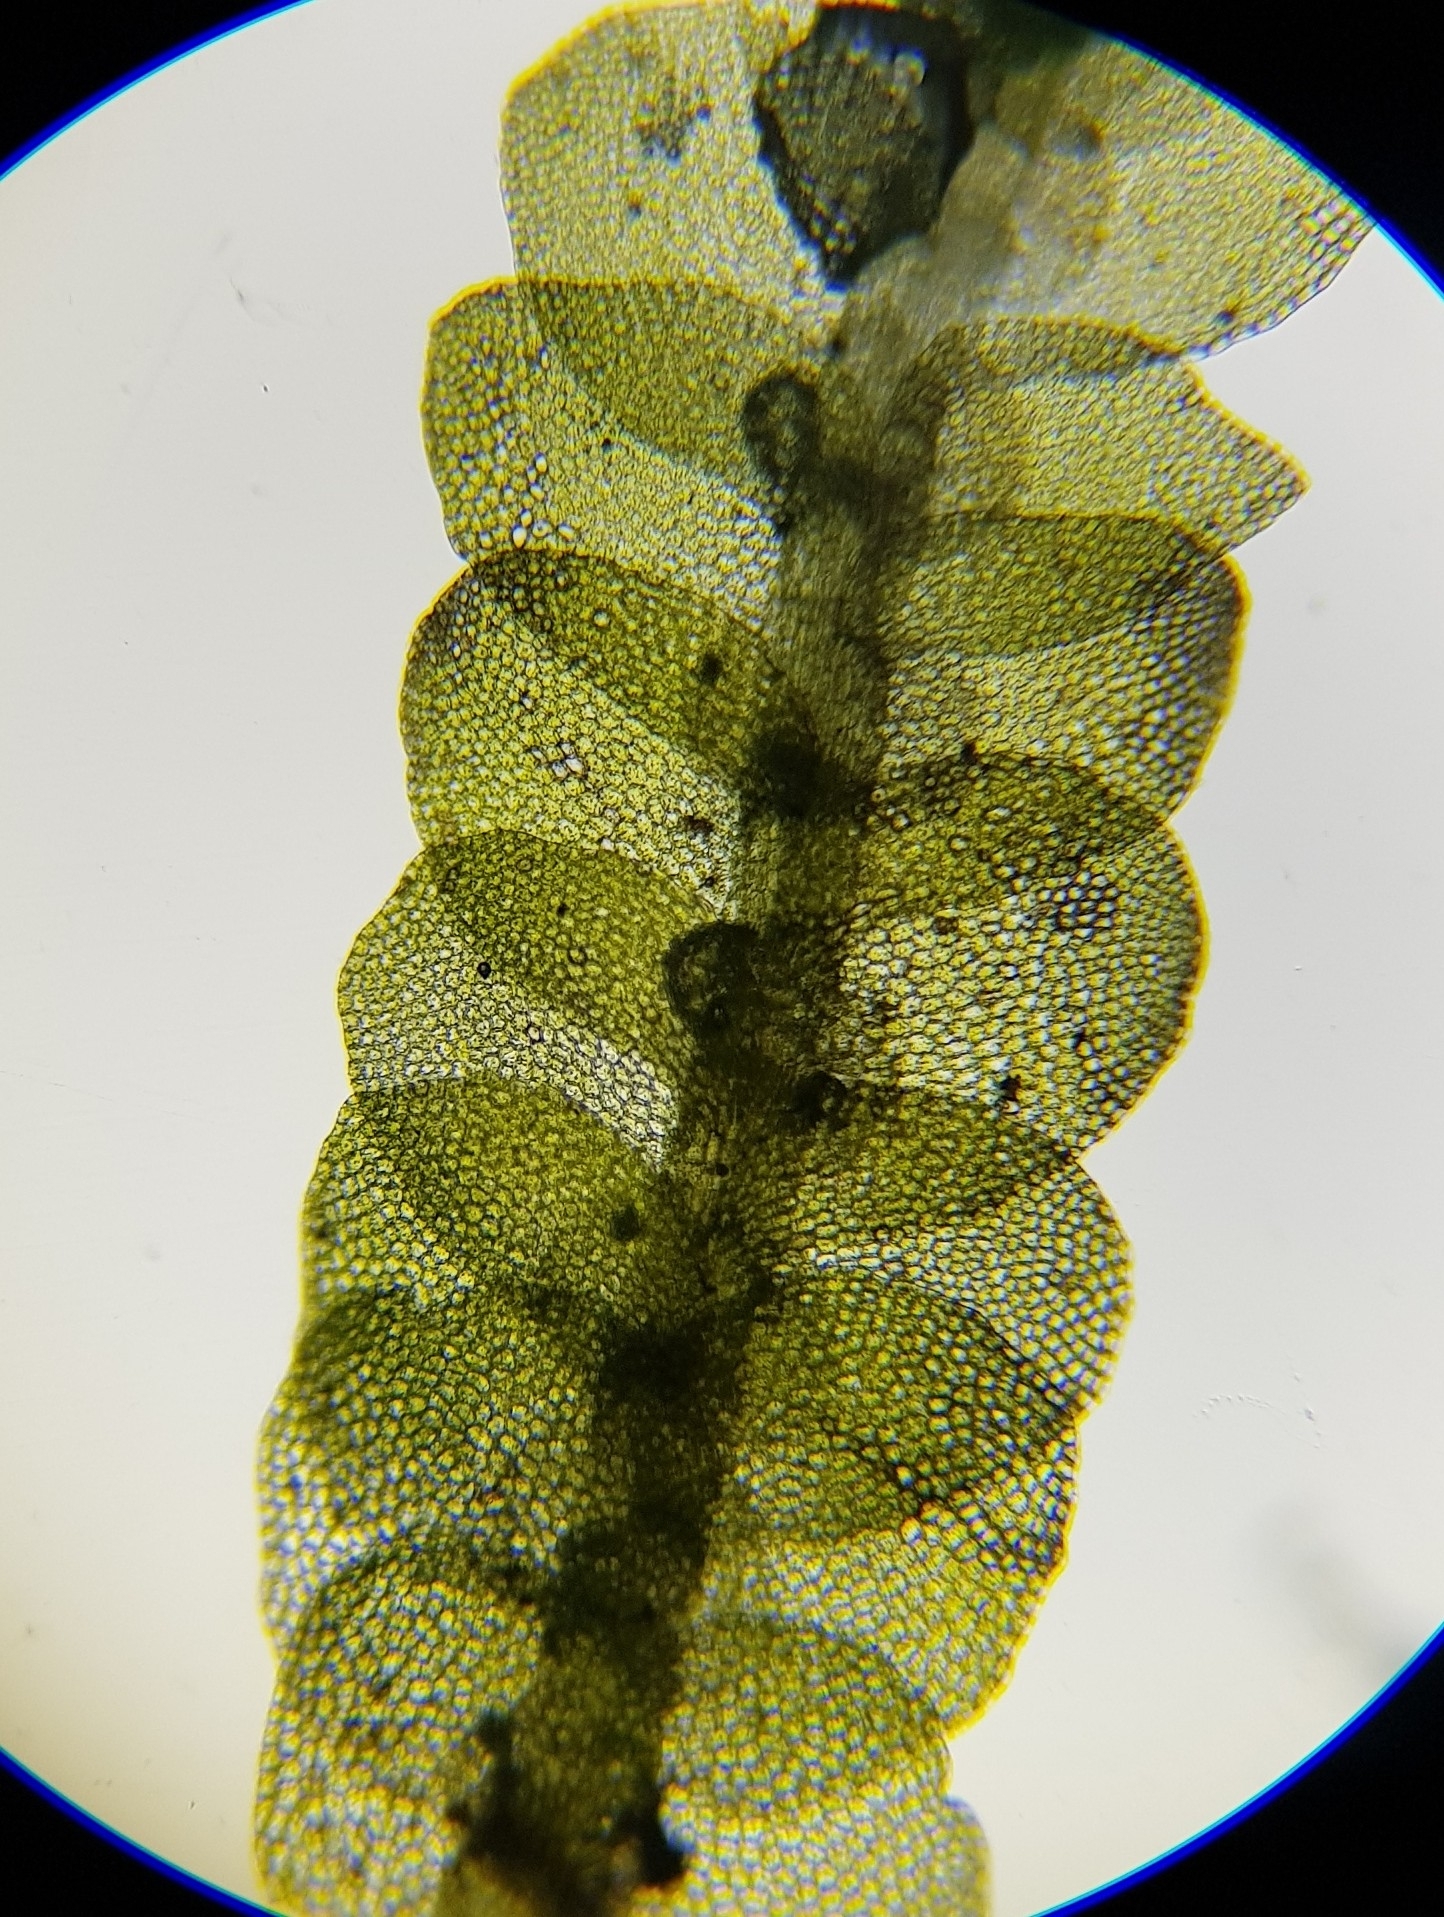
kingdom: Plantae
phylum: Marchantiophyta
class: Jungermanniopsida
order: Jungermanniales
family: Calypogeiaceae
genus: Calypogeia
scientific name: Calypogeia muelleriana
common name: Mueller s pouchwort
